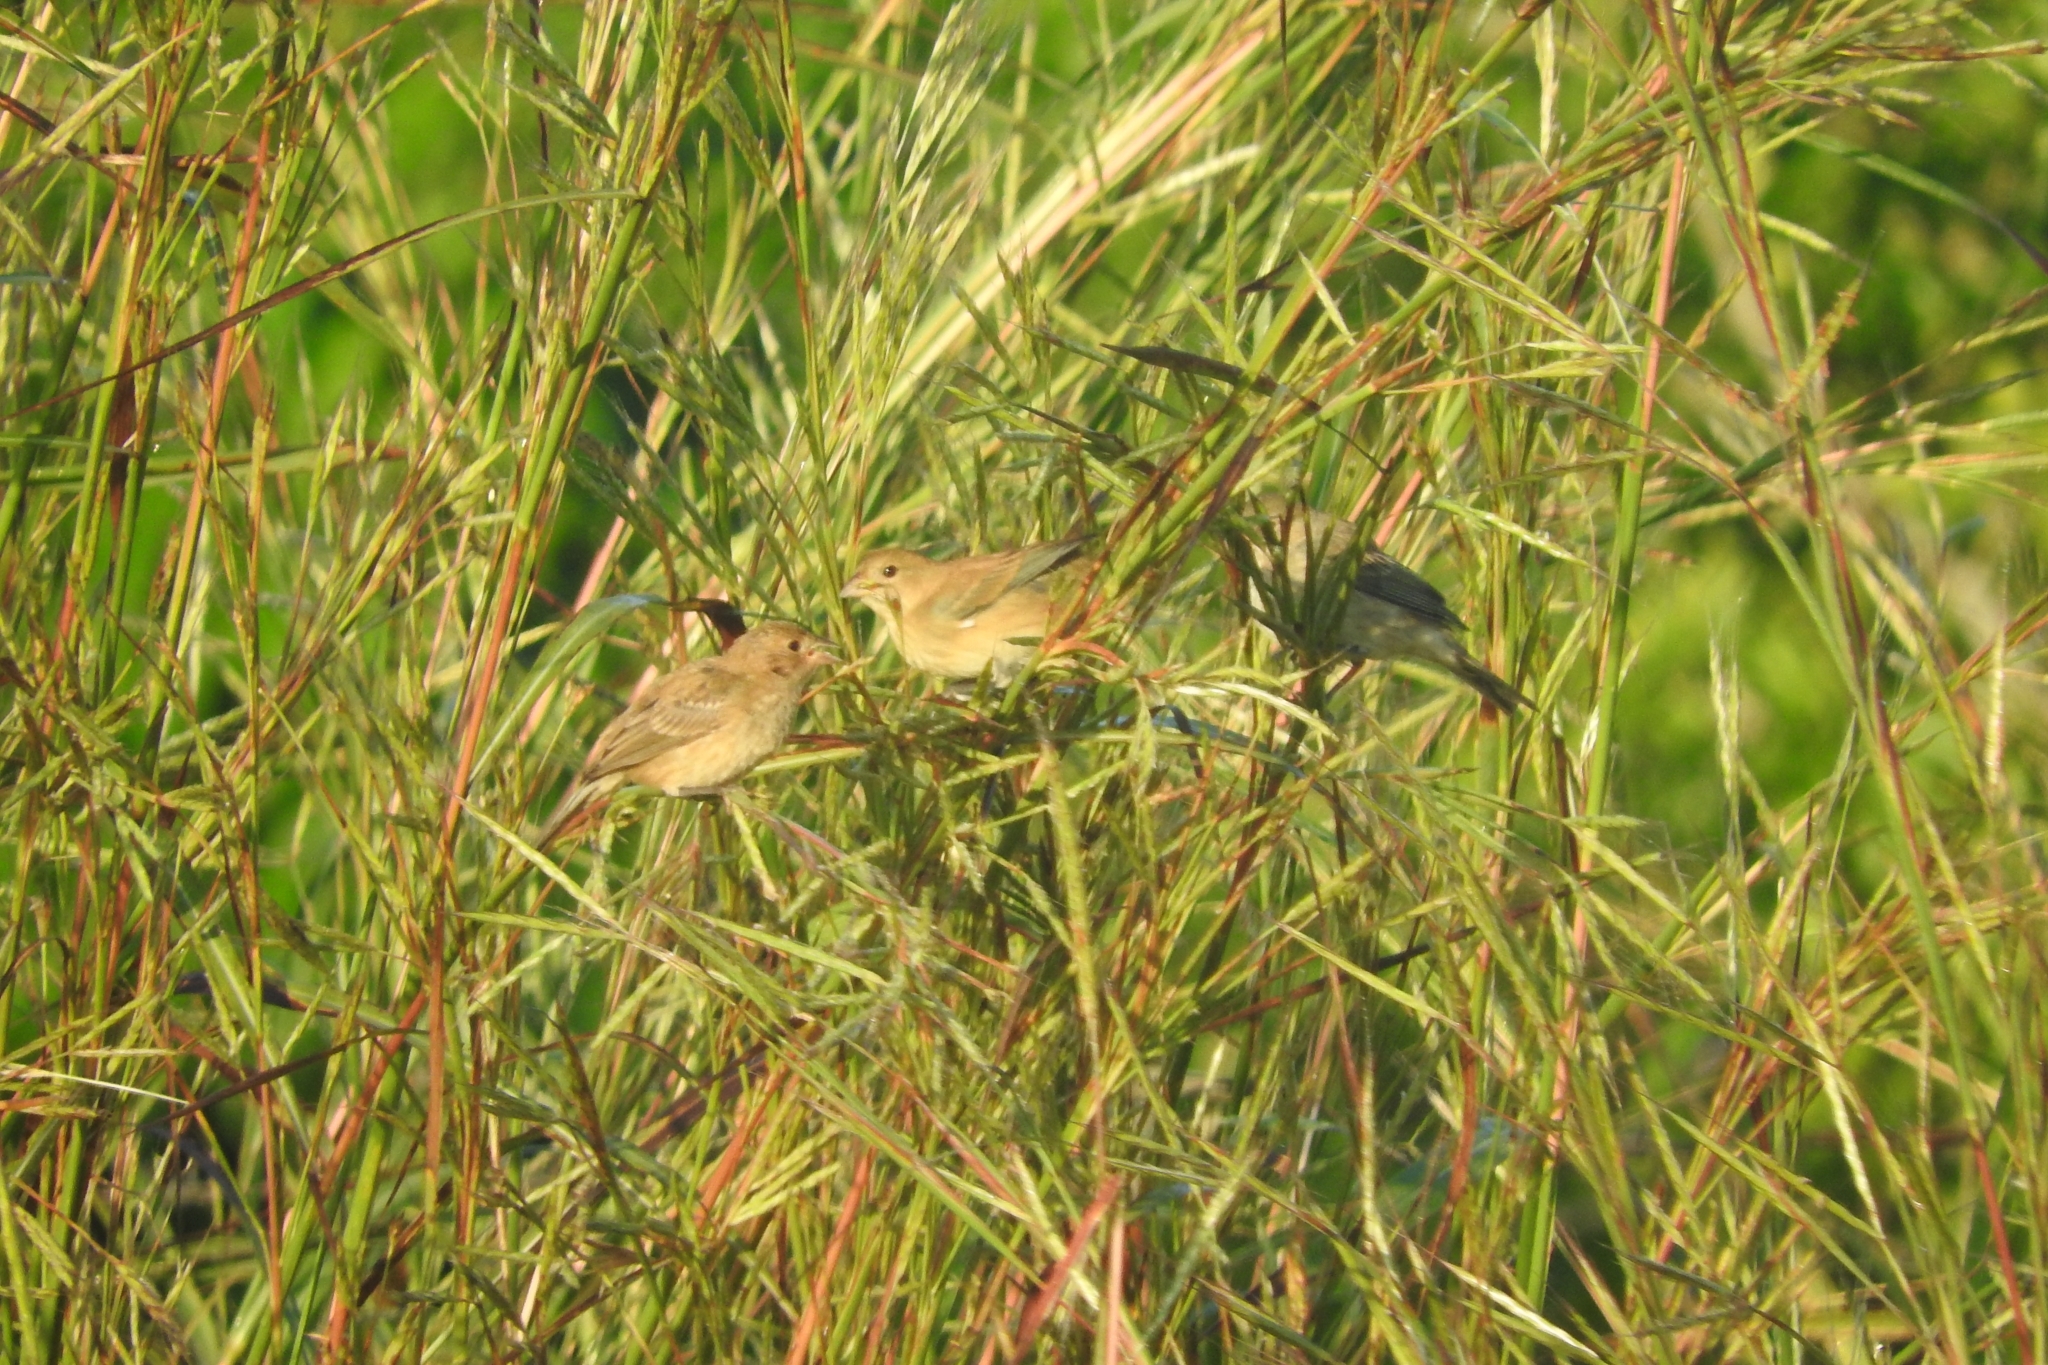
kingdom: Animalia
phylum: Chordata
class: Aves
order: Passeriformes
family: Cardinalidae
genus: Passerina
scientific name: Passerina cyanea
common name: Indigo bunting
